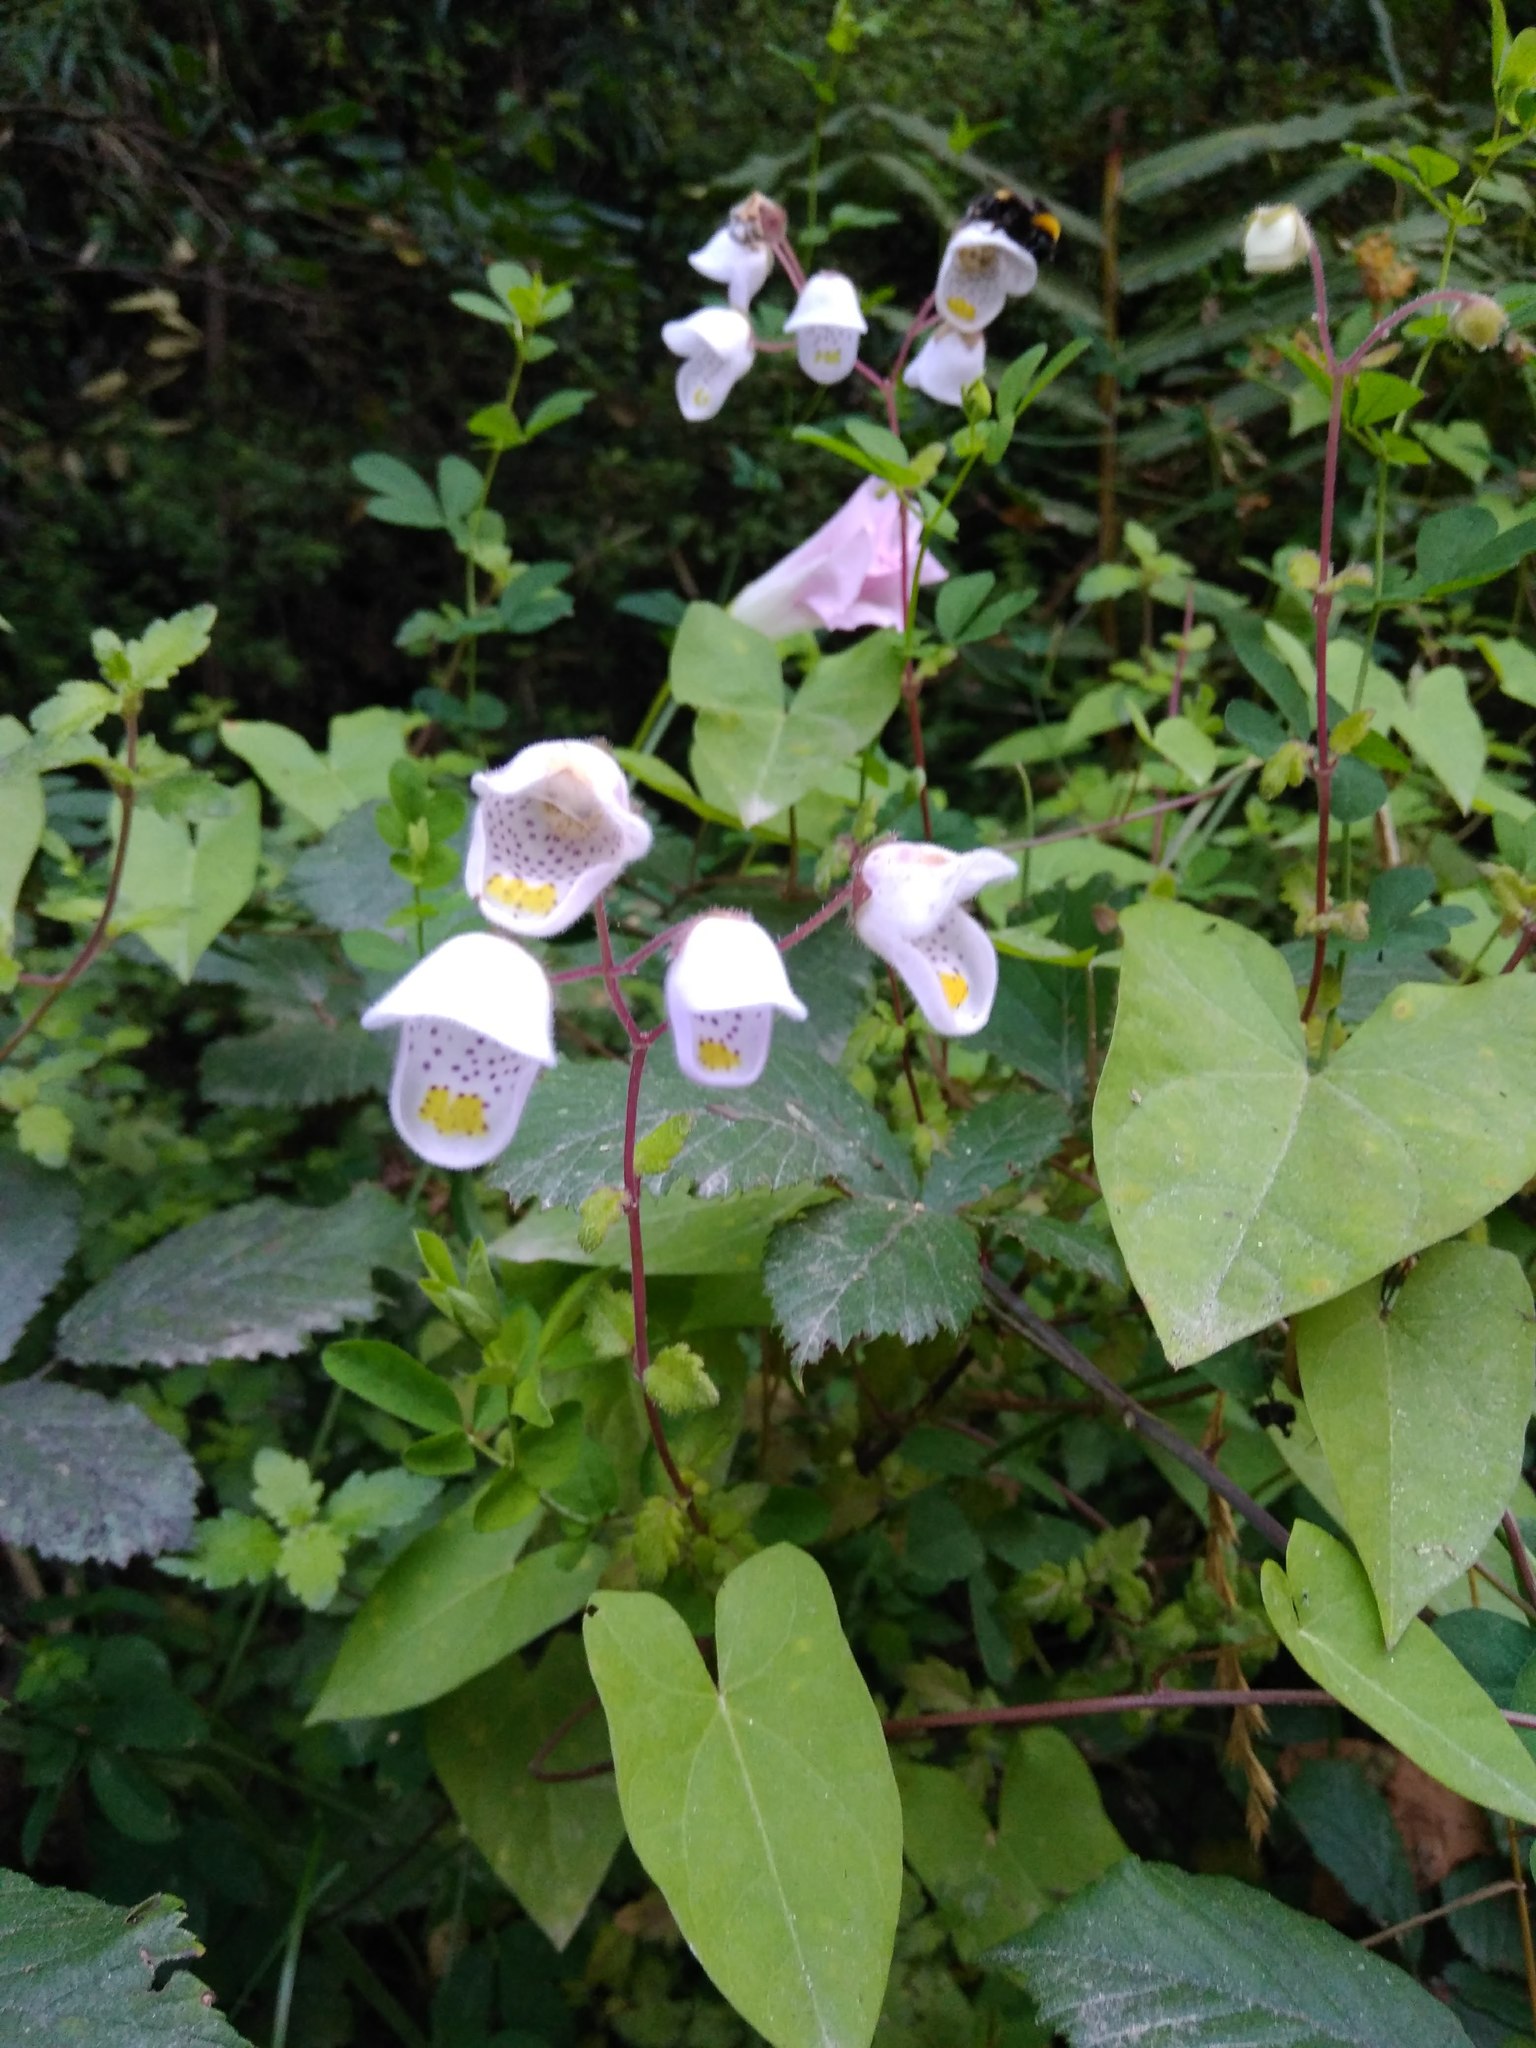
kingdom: Plantae
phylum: Tracheophyta
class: Magnoliopsida
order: Lamiales
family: Calceolariaceae
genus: Jovellana
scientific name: Jovellana violacea
